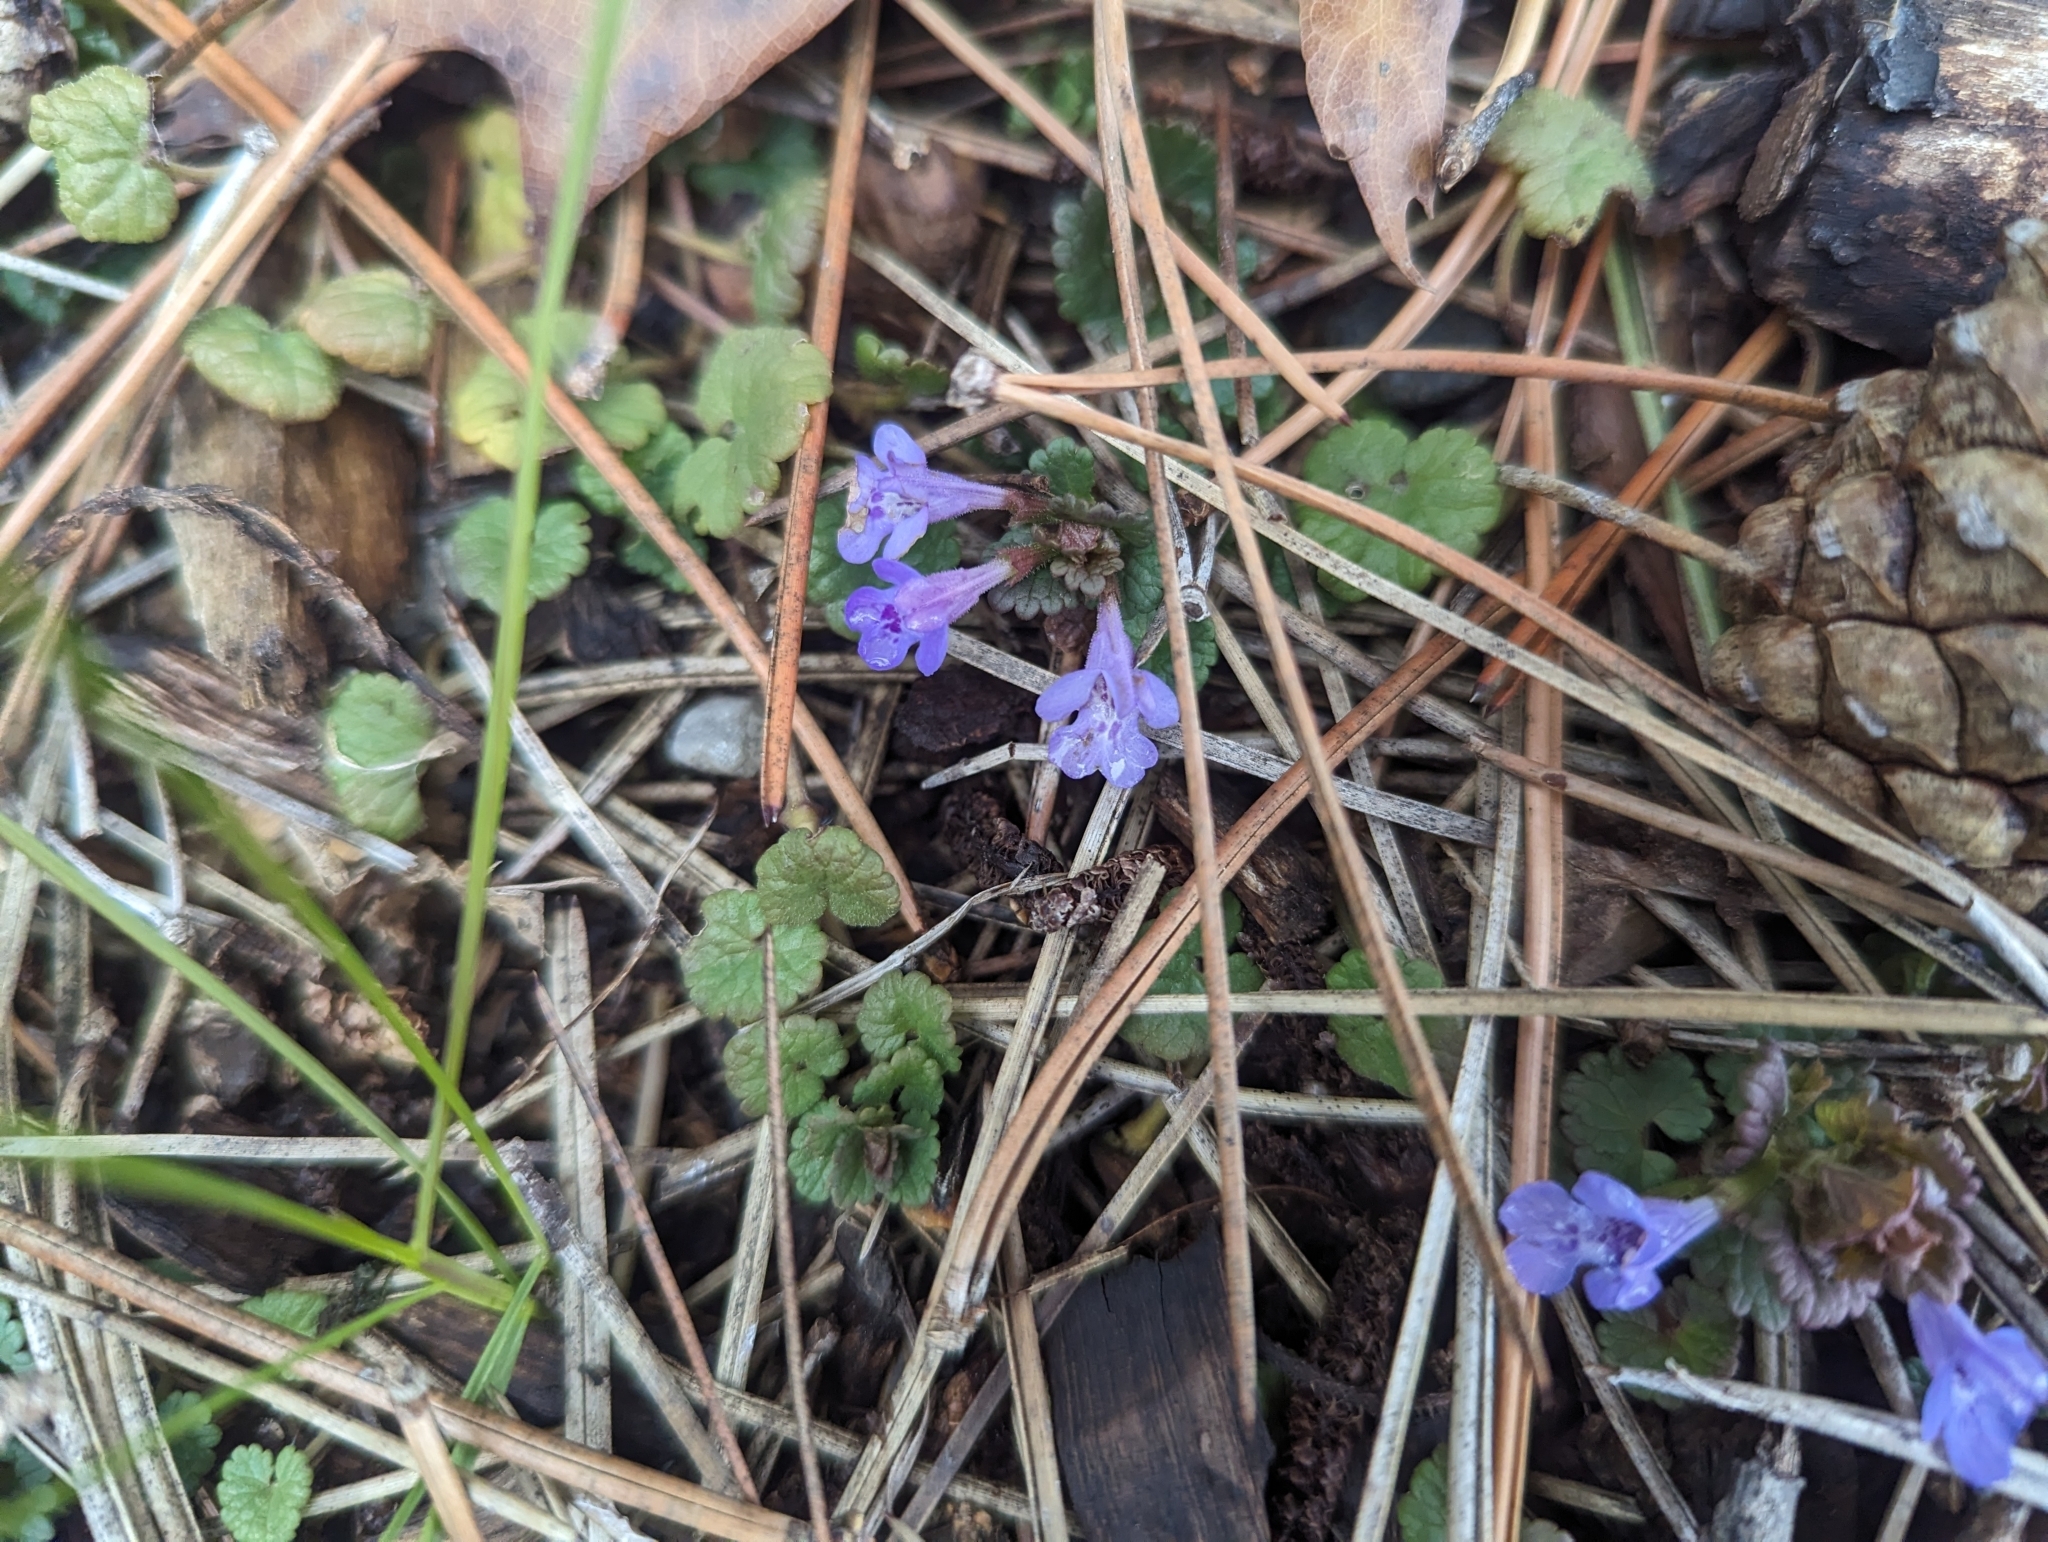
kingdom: Plantae
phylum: Tracheophyta
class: Magnoliopsida
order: Lamiales
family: Lamiaceae
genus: Glechoma
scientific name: Glechoma hederacea
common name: Ground ivy
